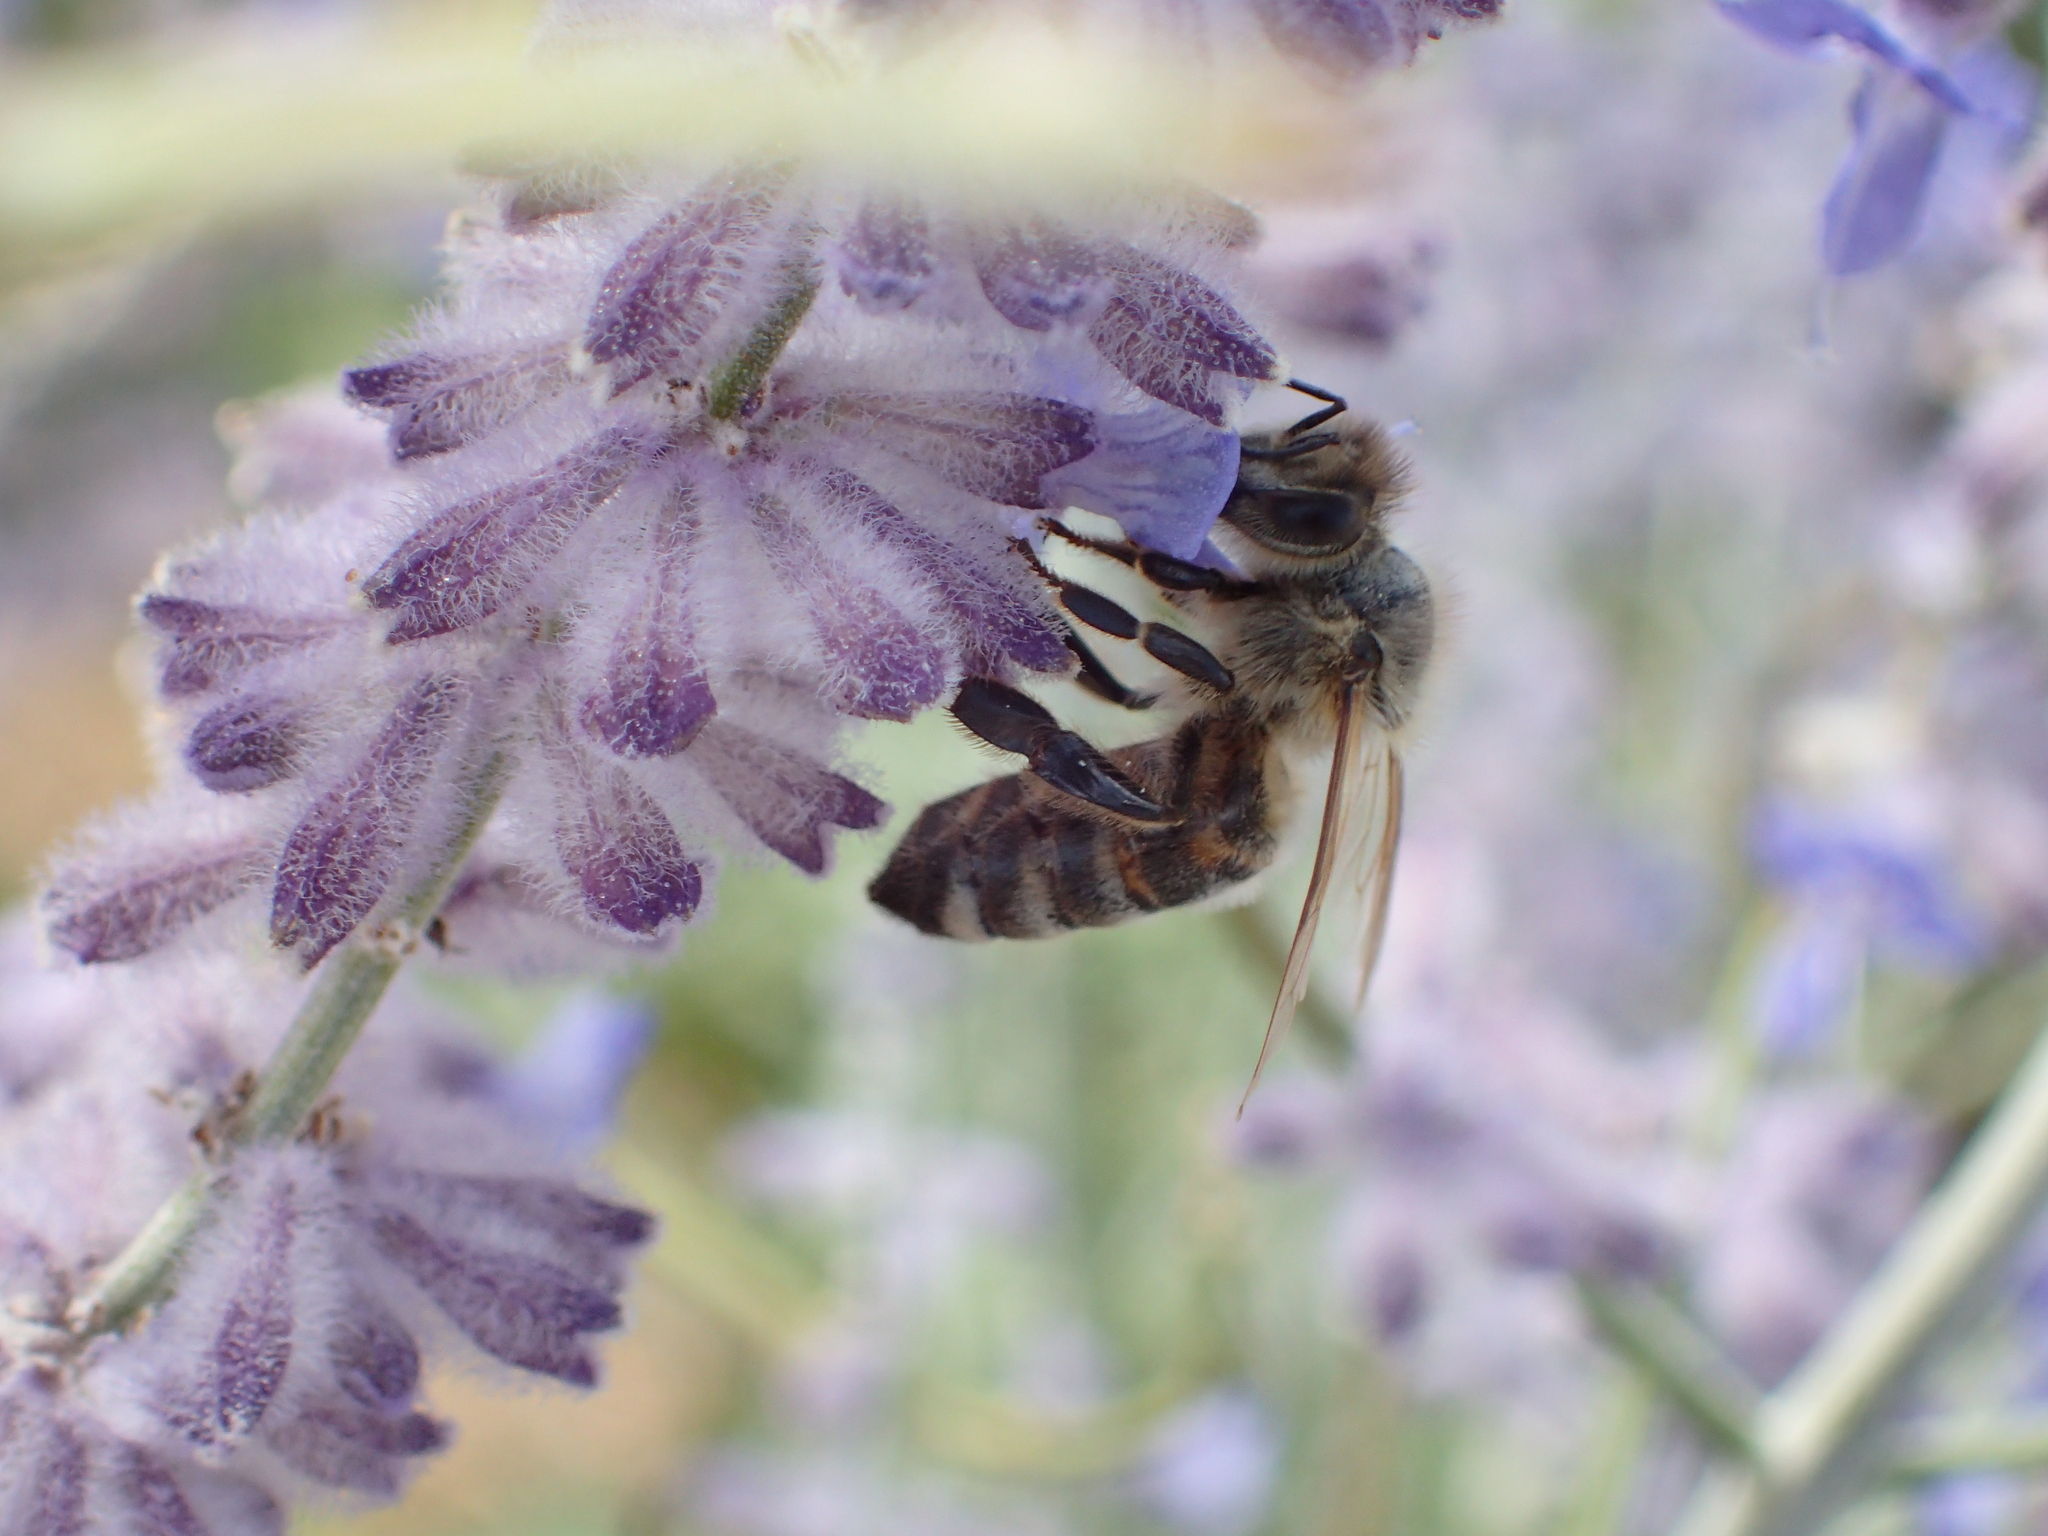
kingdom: Animalia
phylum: Arthropoda
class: Insecta
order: Hymenoptera
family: Apidae
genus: Apis
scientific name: Apis mellifera
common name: Honey bee
